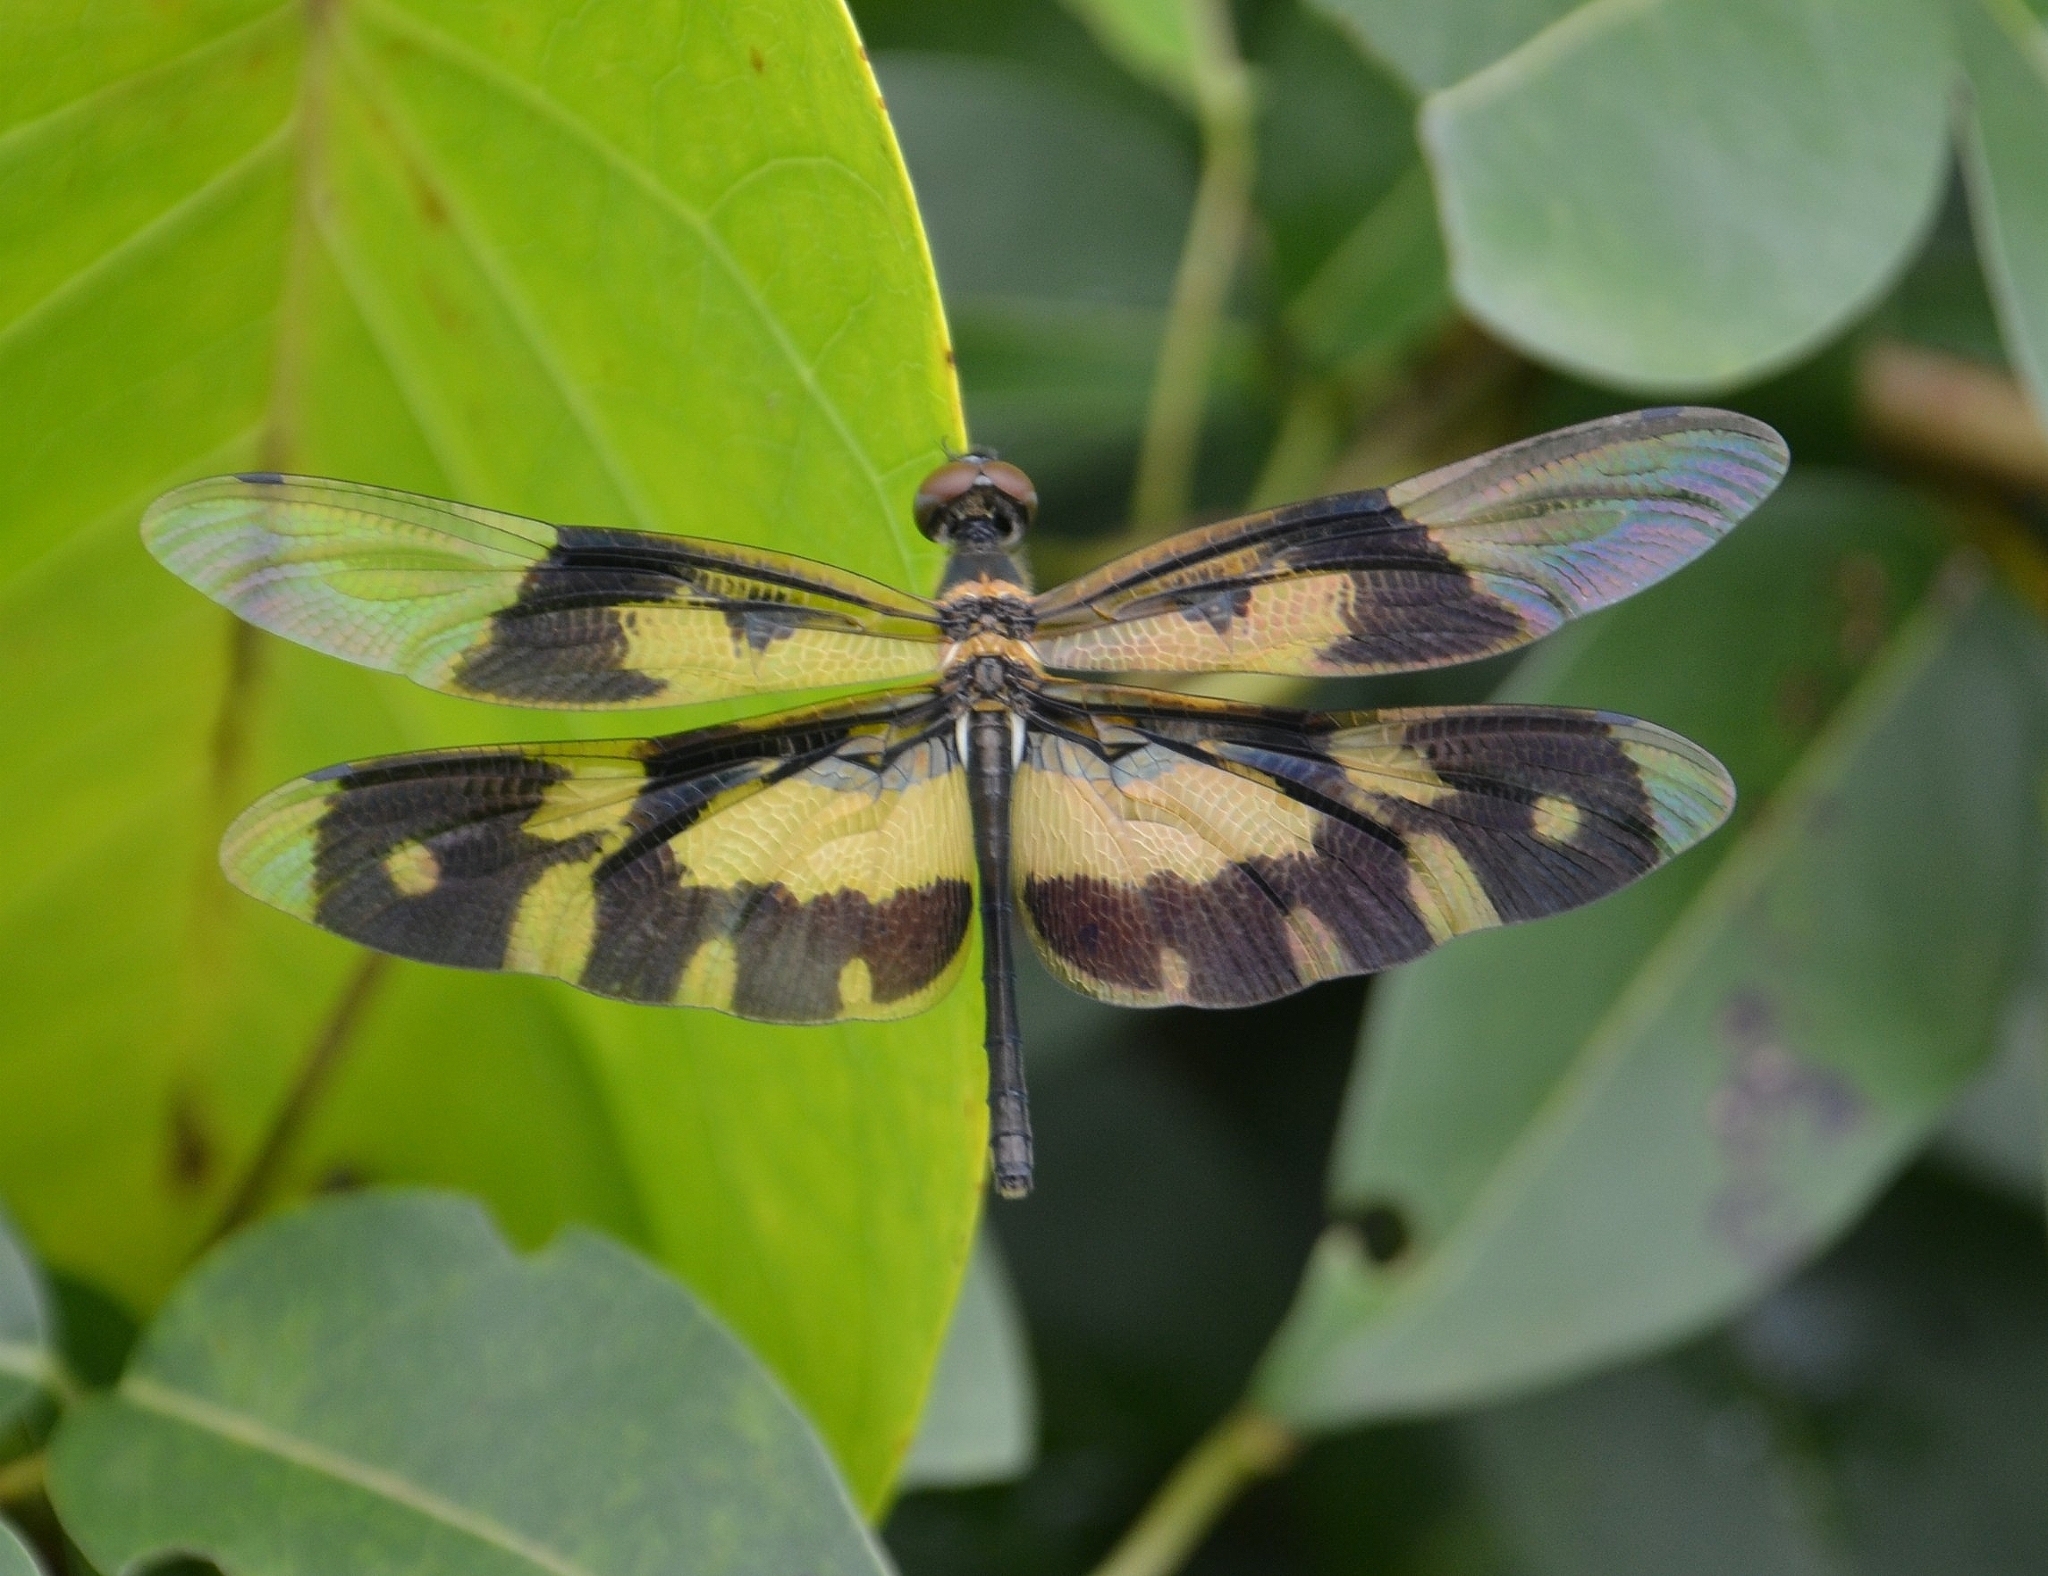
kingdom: Animalia
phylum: Arthropoda
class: Insecta
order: Odonata
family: Libellulidae
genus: Rhyothemis
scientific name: Rhyothemis variegata
